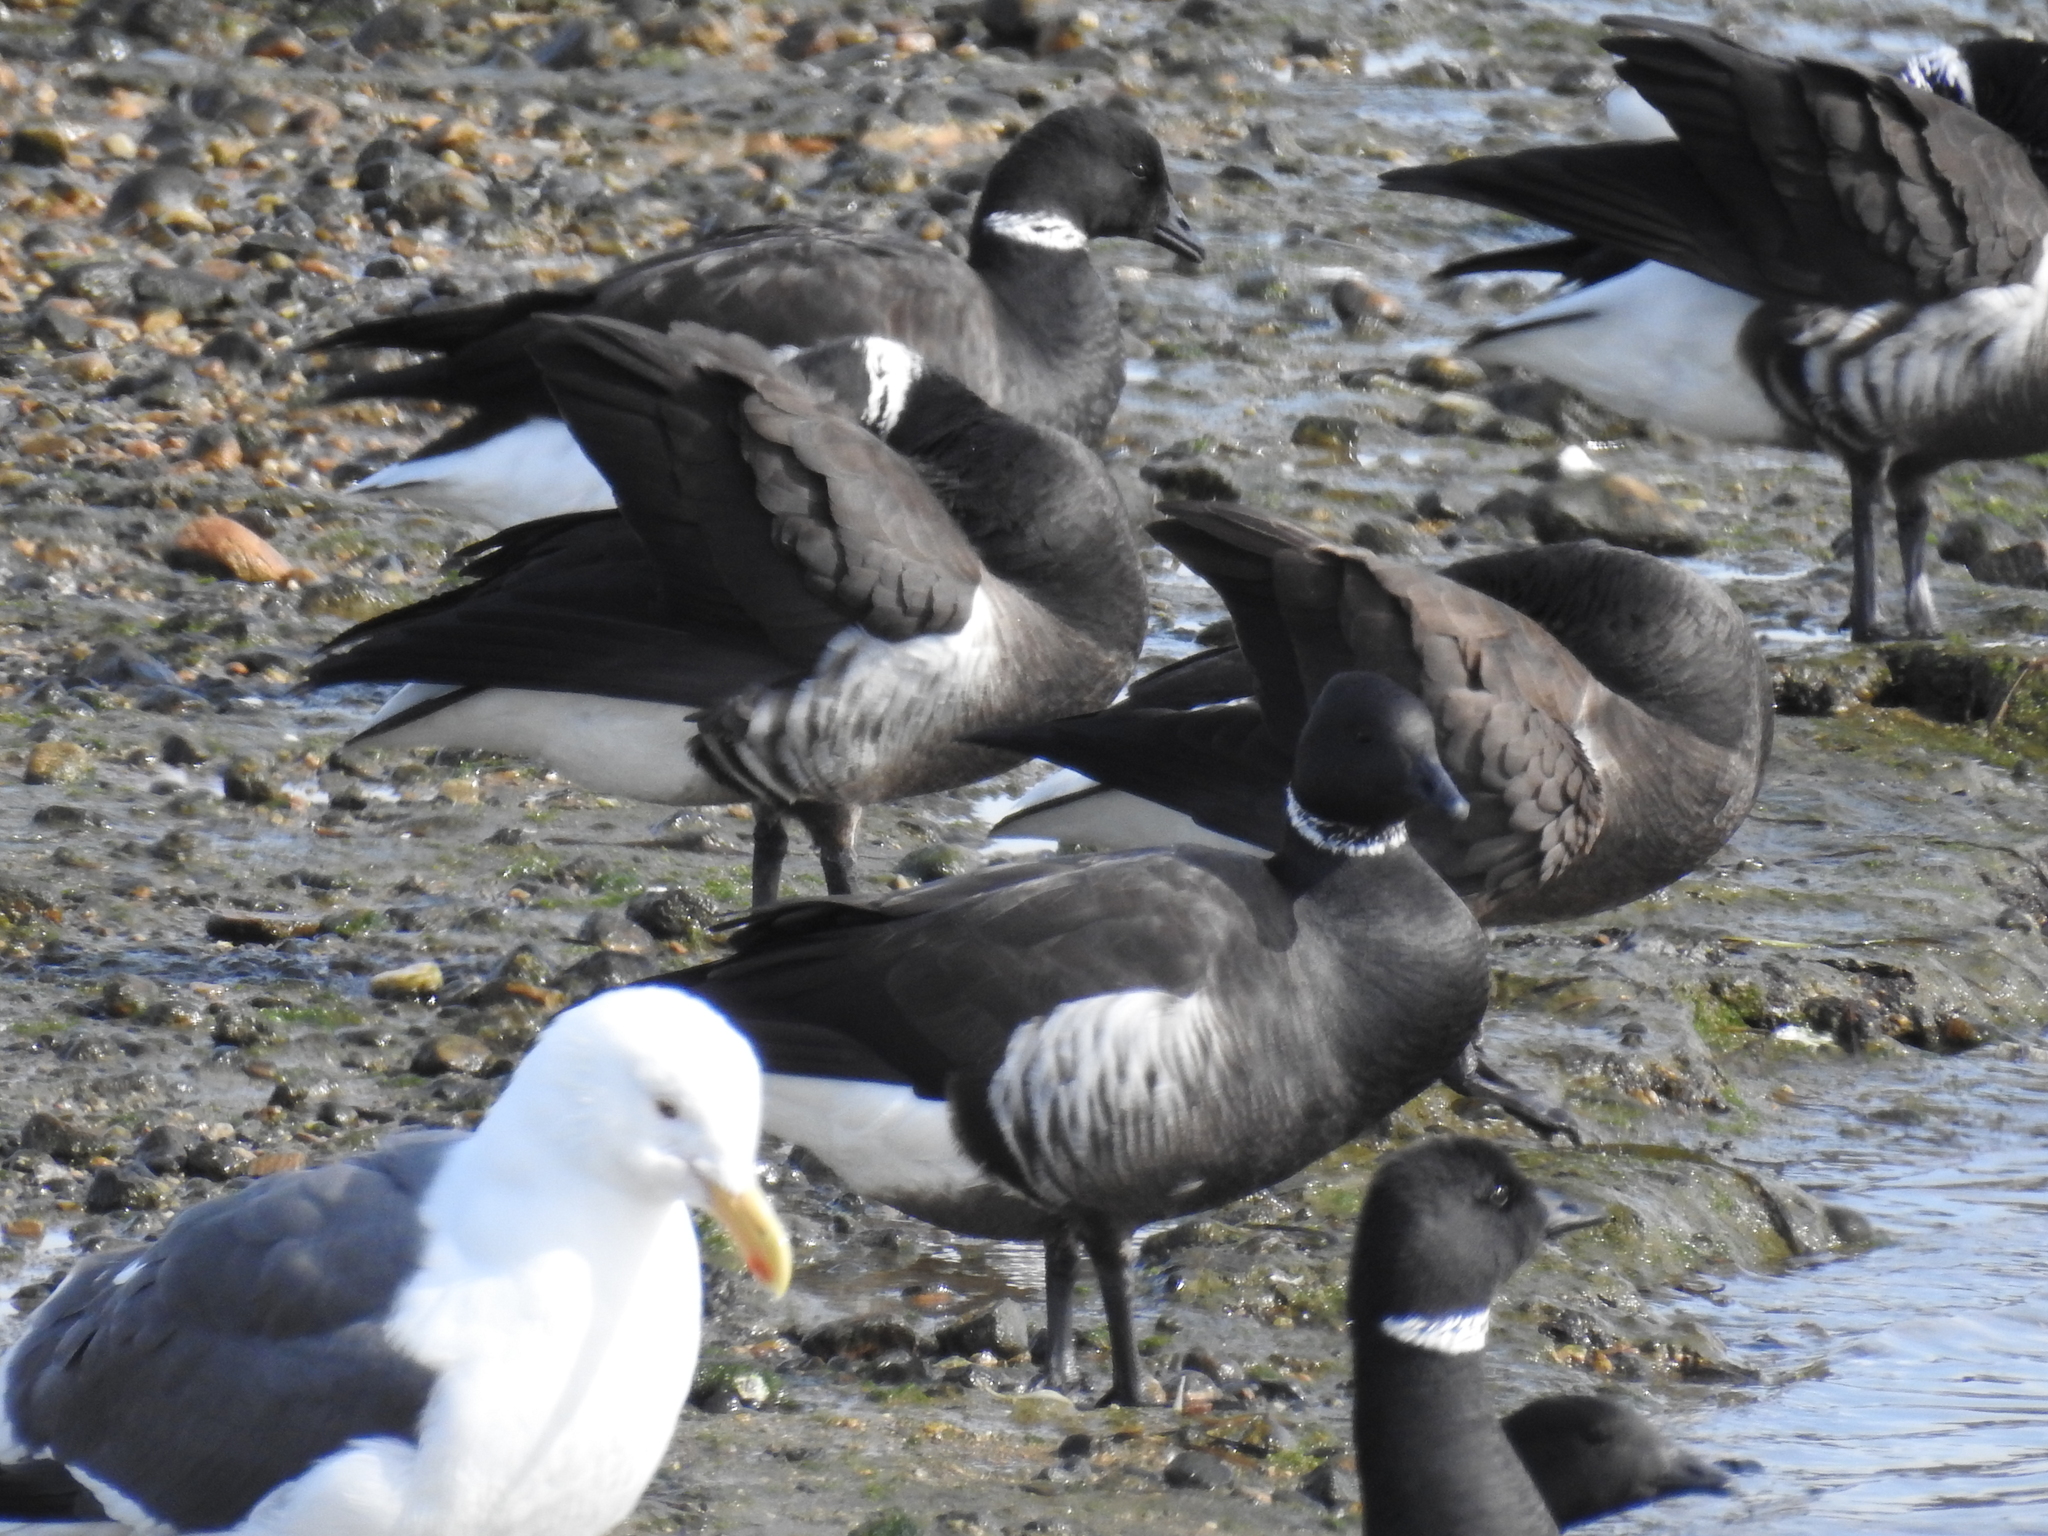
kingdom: Animalia
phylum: Chordata
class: Aves
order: Anseriformes
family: Anatidae
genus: Branta
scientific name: Branta bernicla
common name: Brant goose
